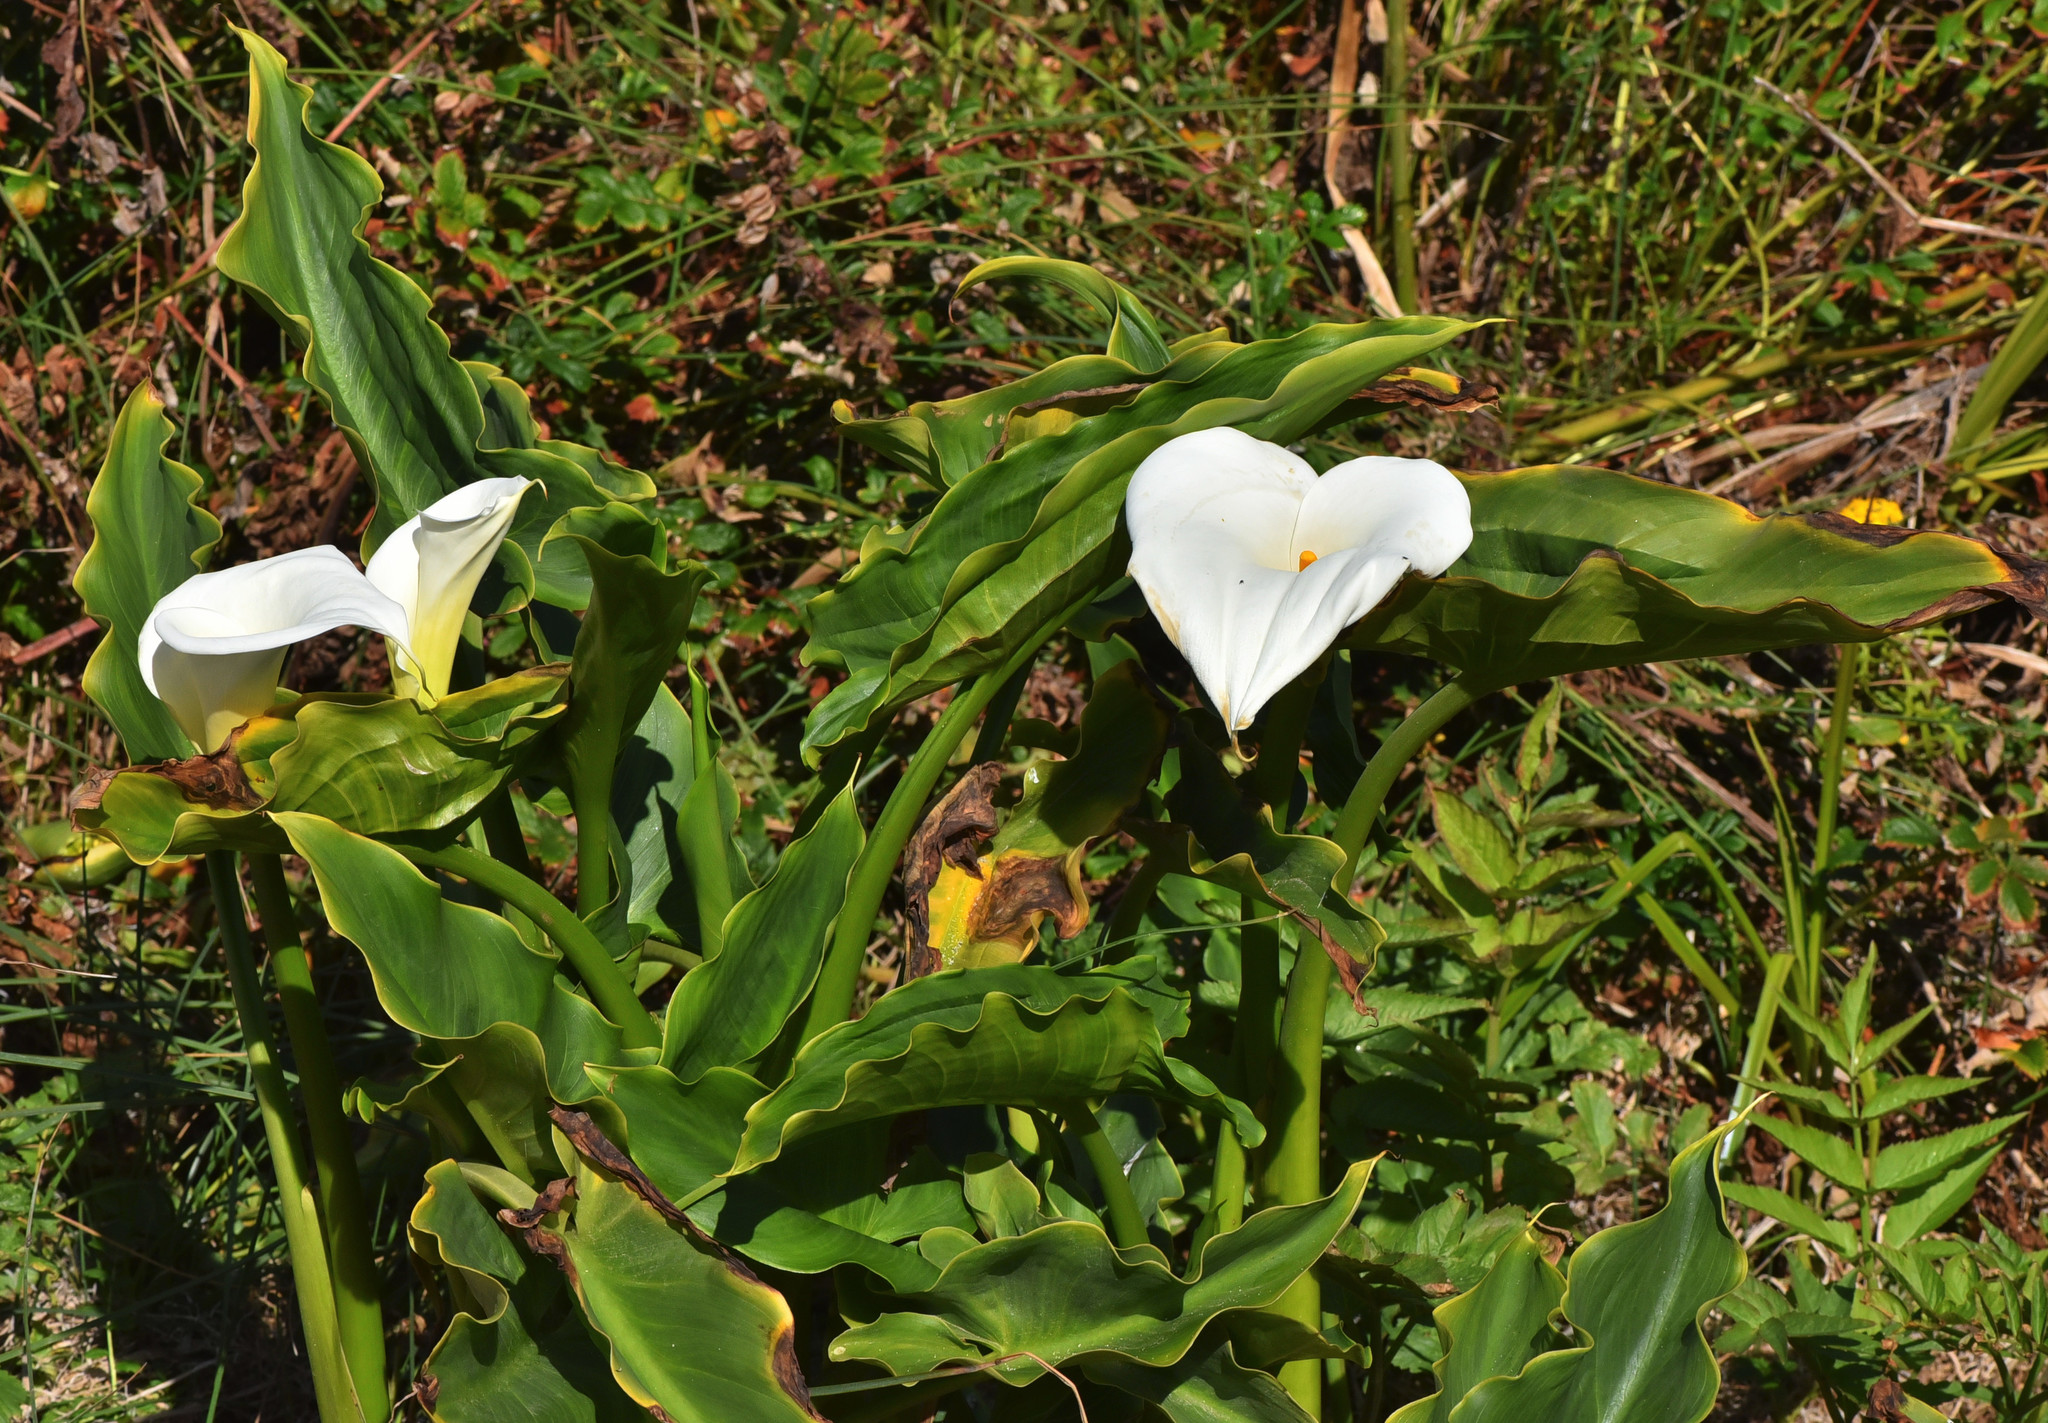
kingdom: Plantae
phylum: Tracheophyta
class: Liliopsida
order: Alismatales
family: Araceae
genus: Zantedeschia
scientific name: Zantedeschia aethiopica
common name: Altar-lily
